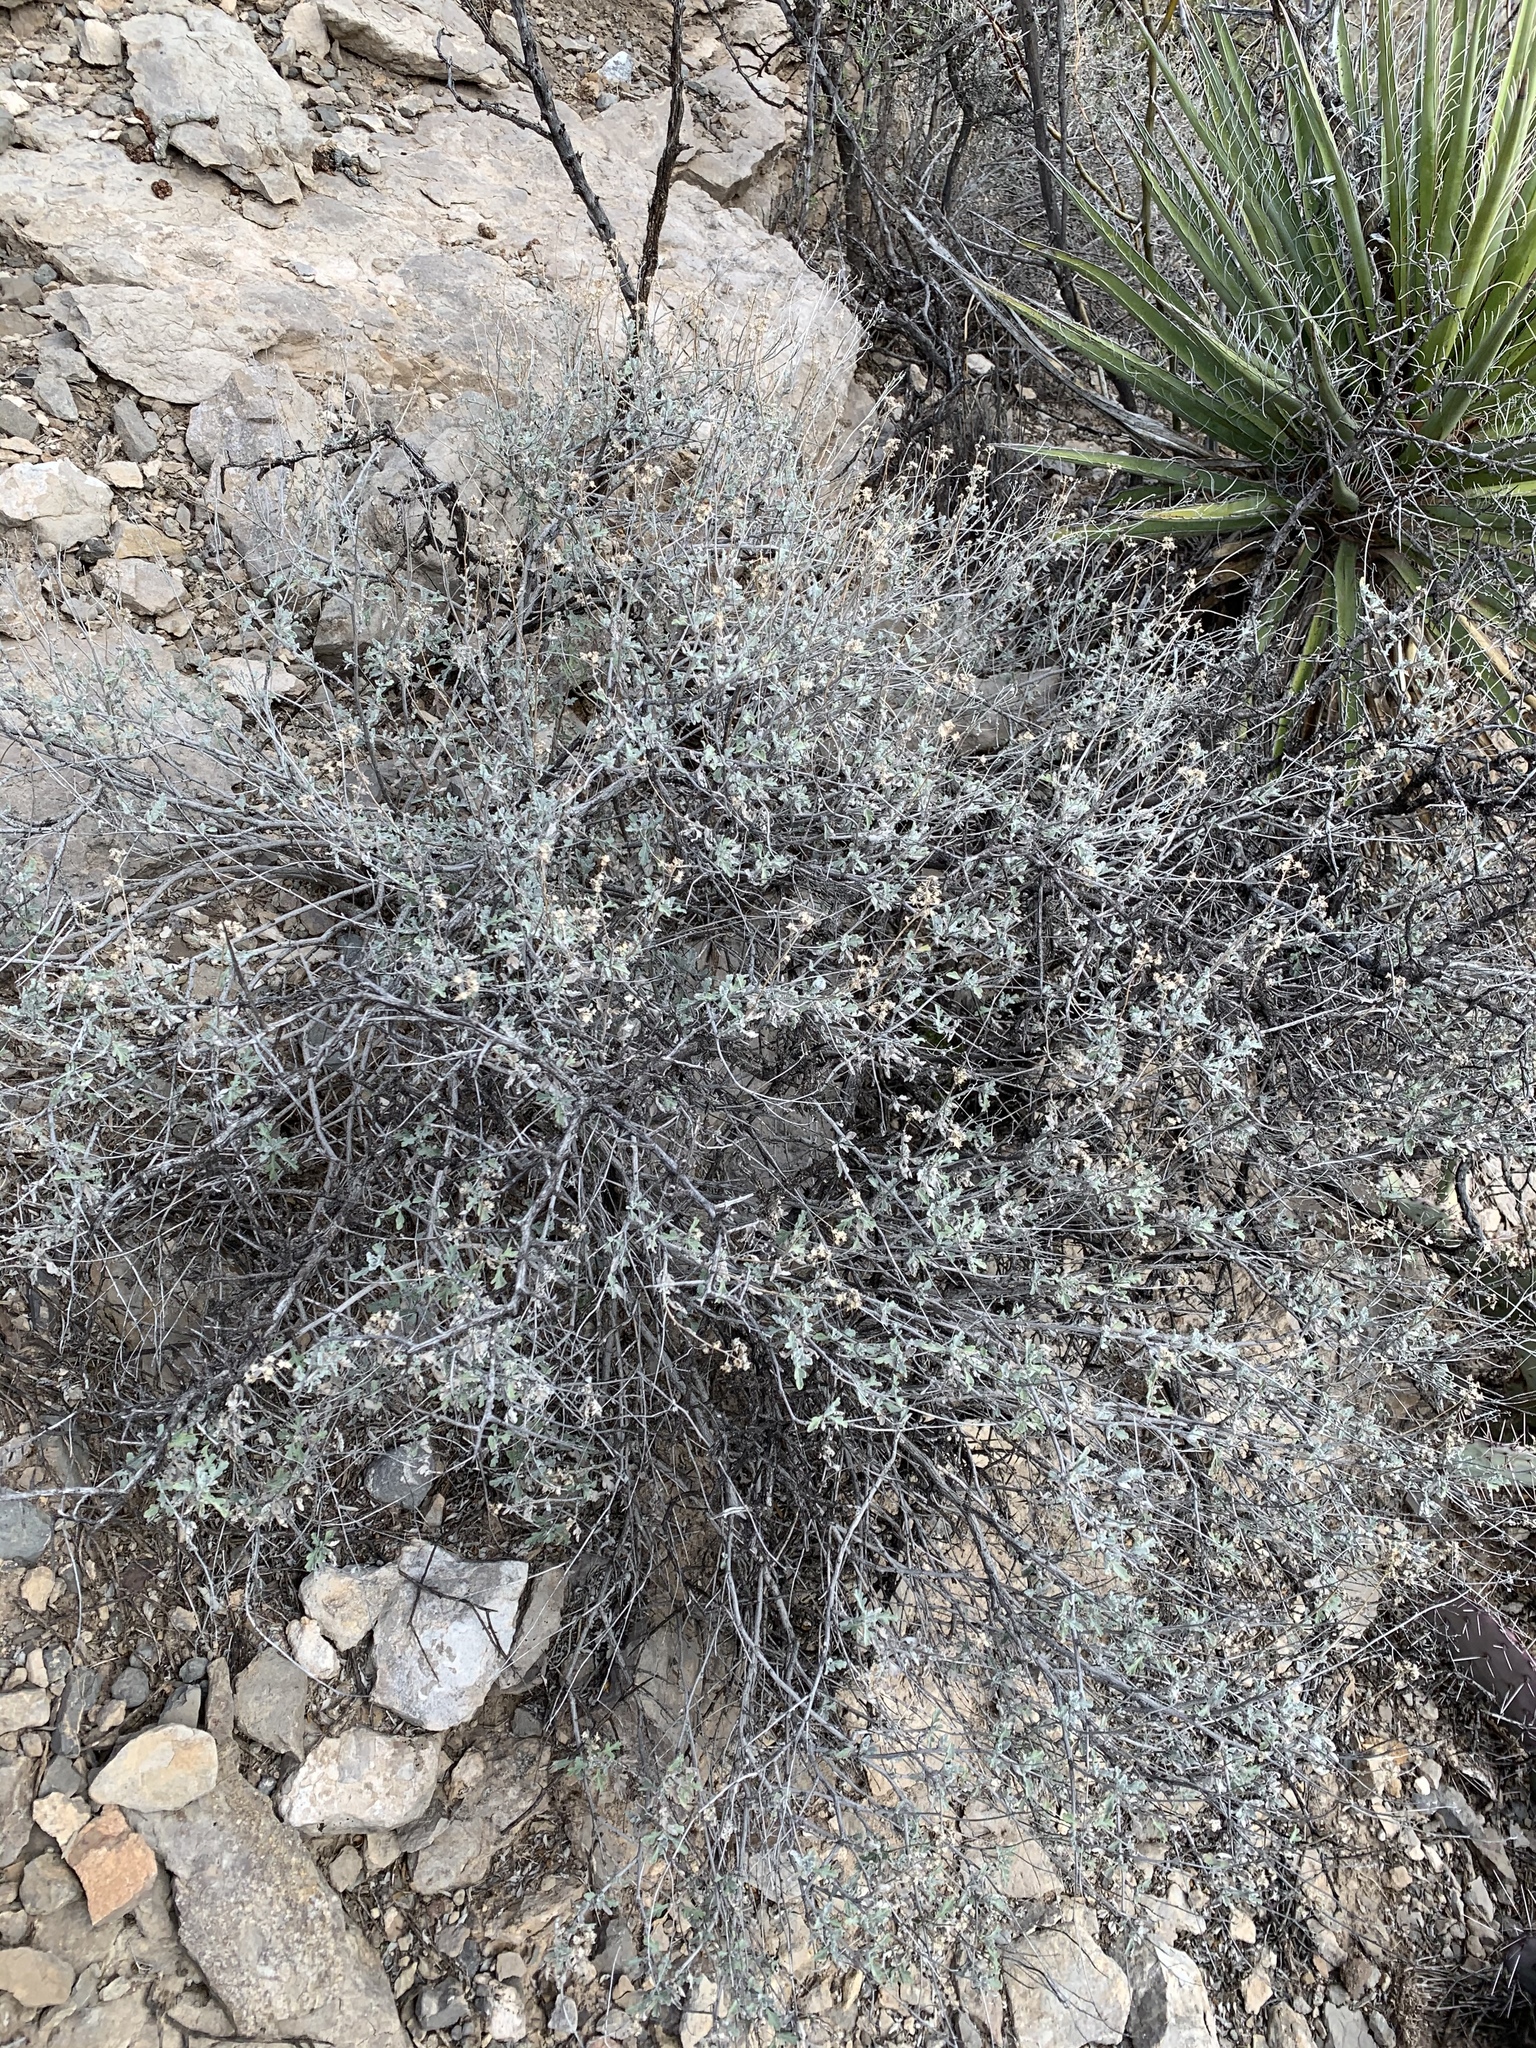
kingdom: Plantae
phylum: Tracheophyta
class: Magnoliopsida
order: Asterales
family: Asteraceae
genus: Parthenium
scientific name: Parthenium incanum
